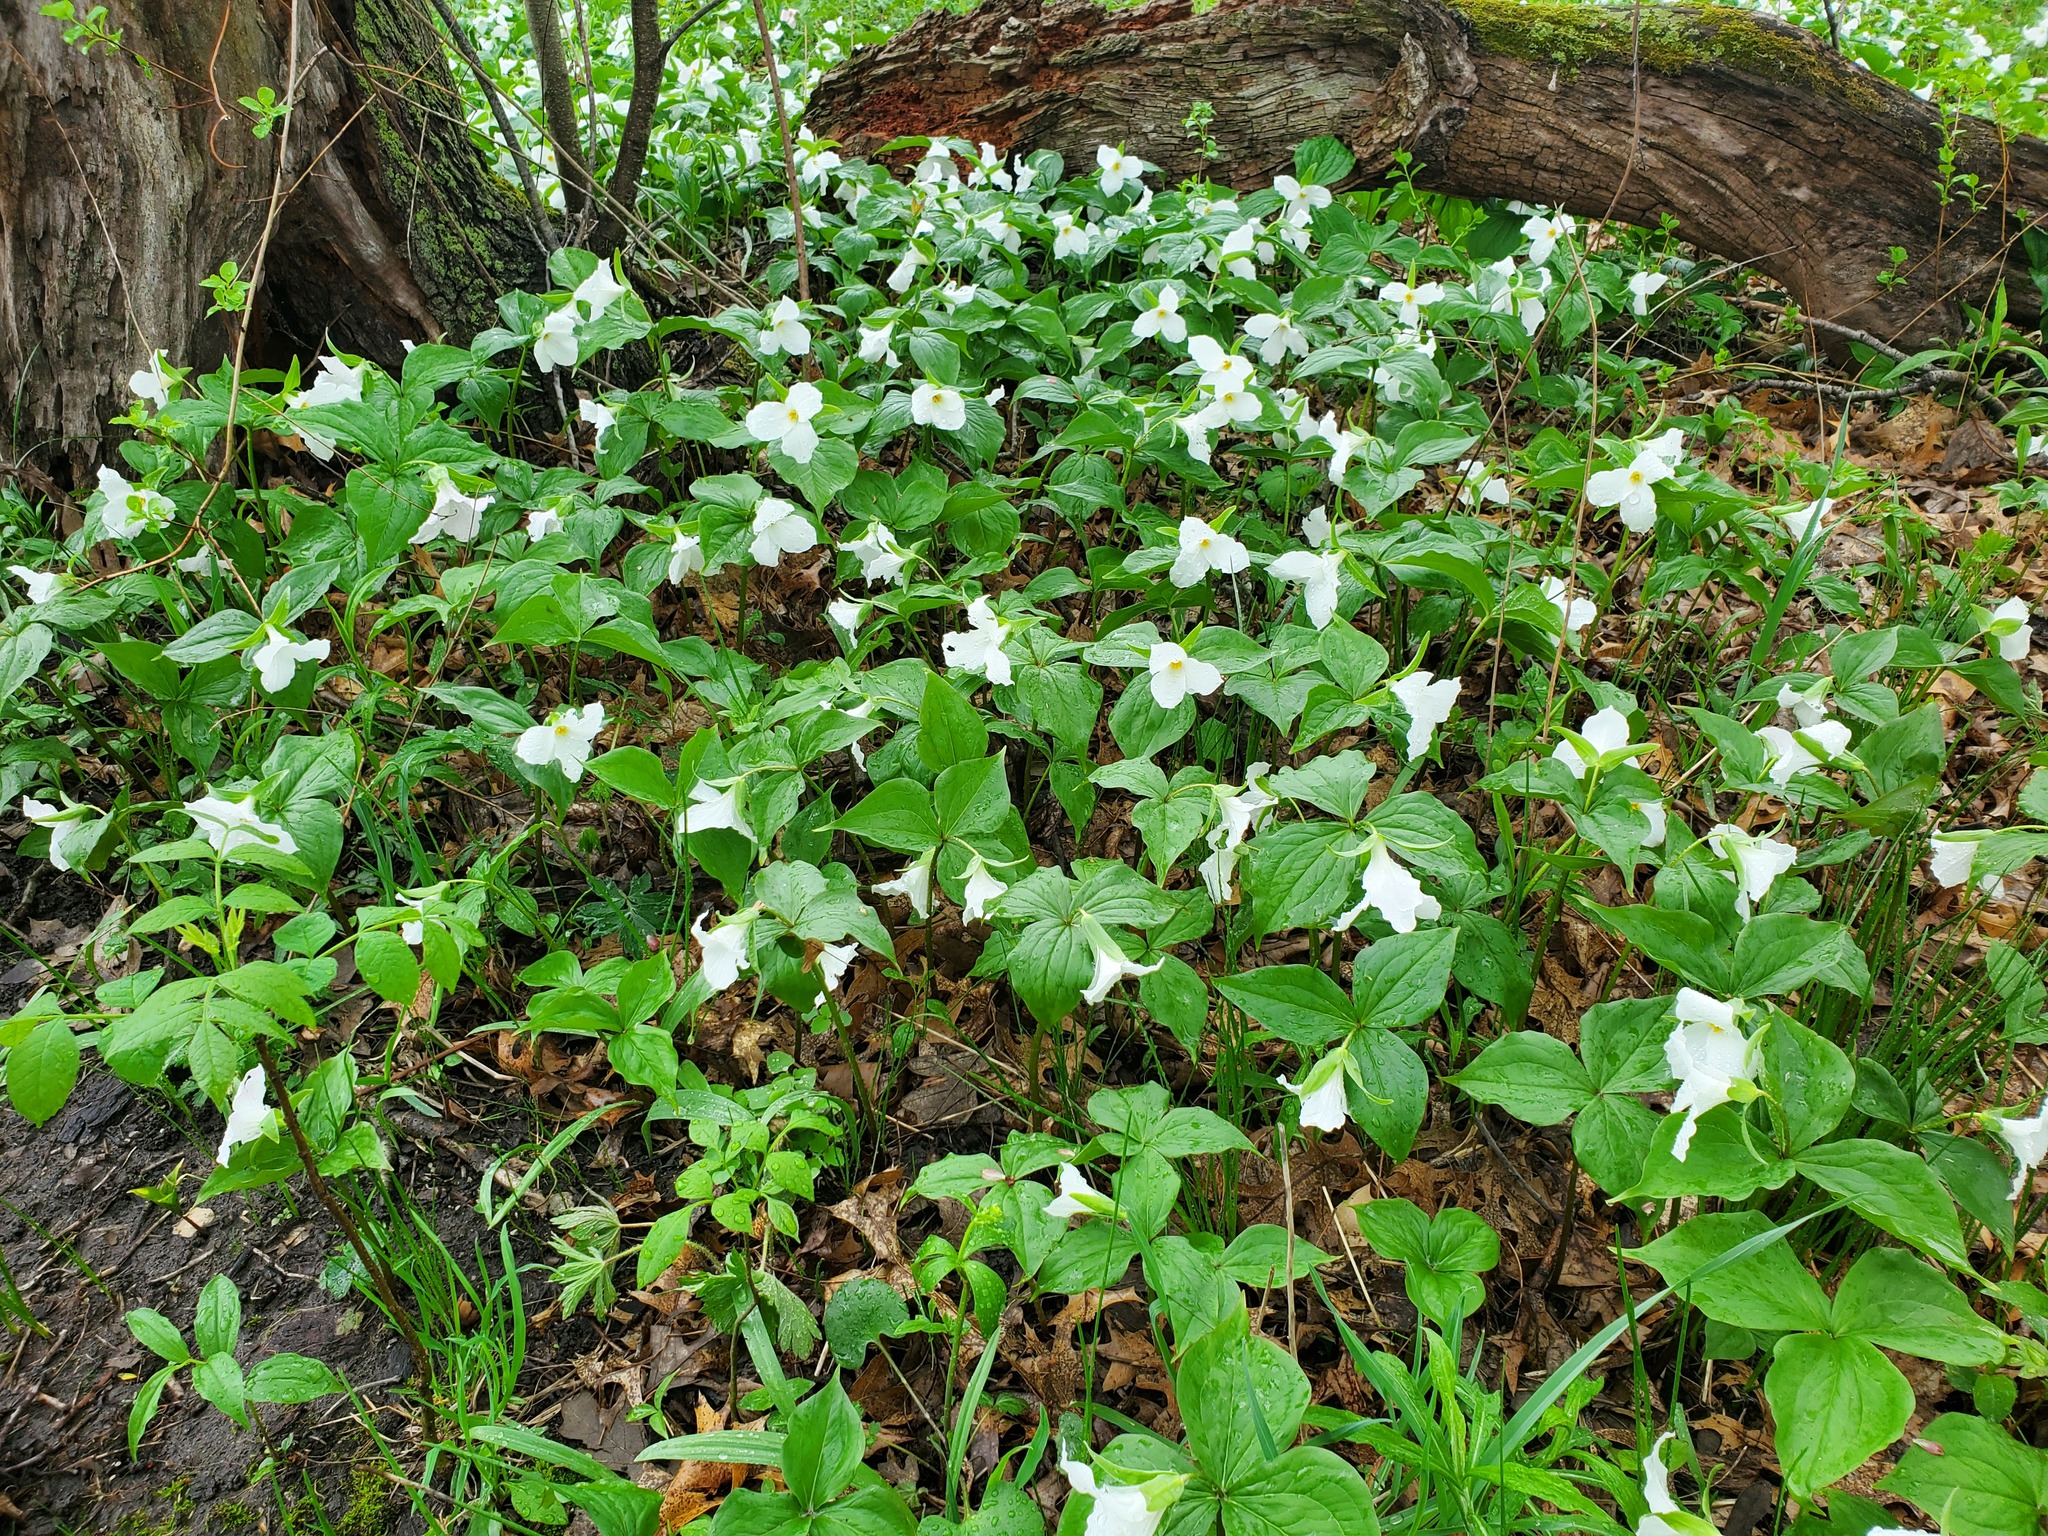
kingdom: Plantae
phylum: Tracheophyta
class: Liliopsida
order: Liliales
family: Melanthiaceae
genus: Trillium
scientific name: Trillium grandiflorum
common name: Great white trillium
